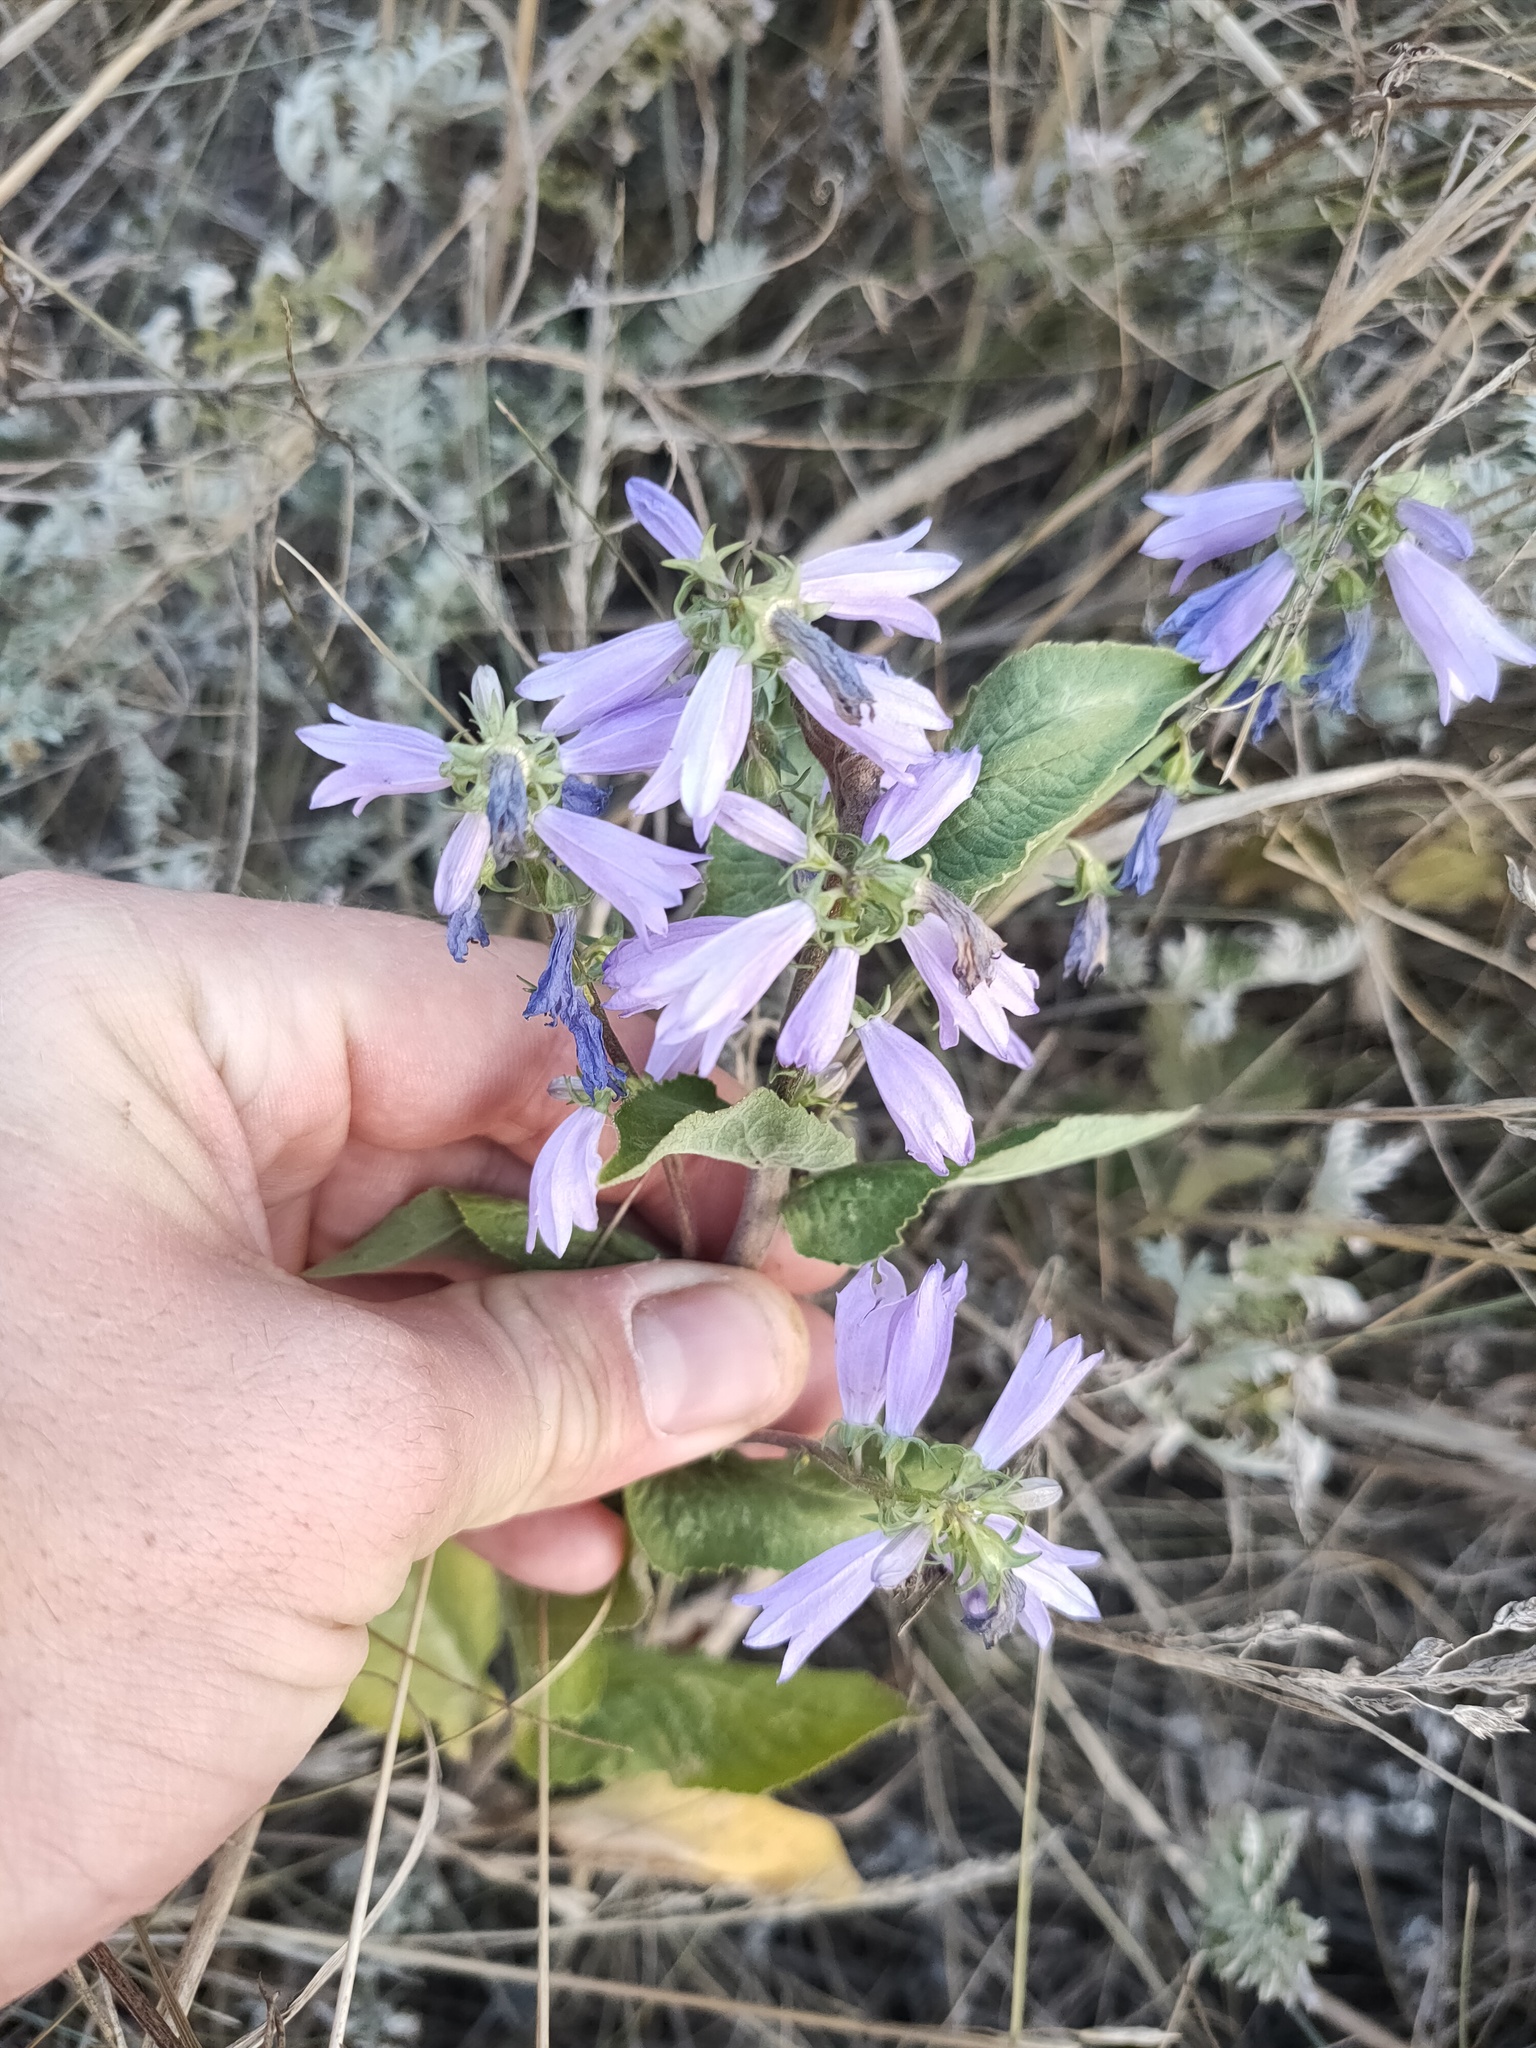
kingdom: Plantae
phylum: Tracheophyta
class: Magnoliopsida
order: Asterales
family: Campanulaceae
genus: Campanula
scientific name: Campanula bononiensis
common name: Pale bellflower
